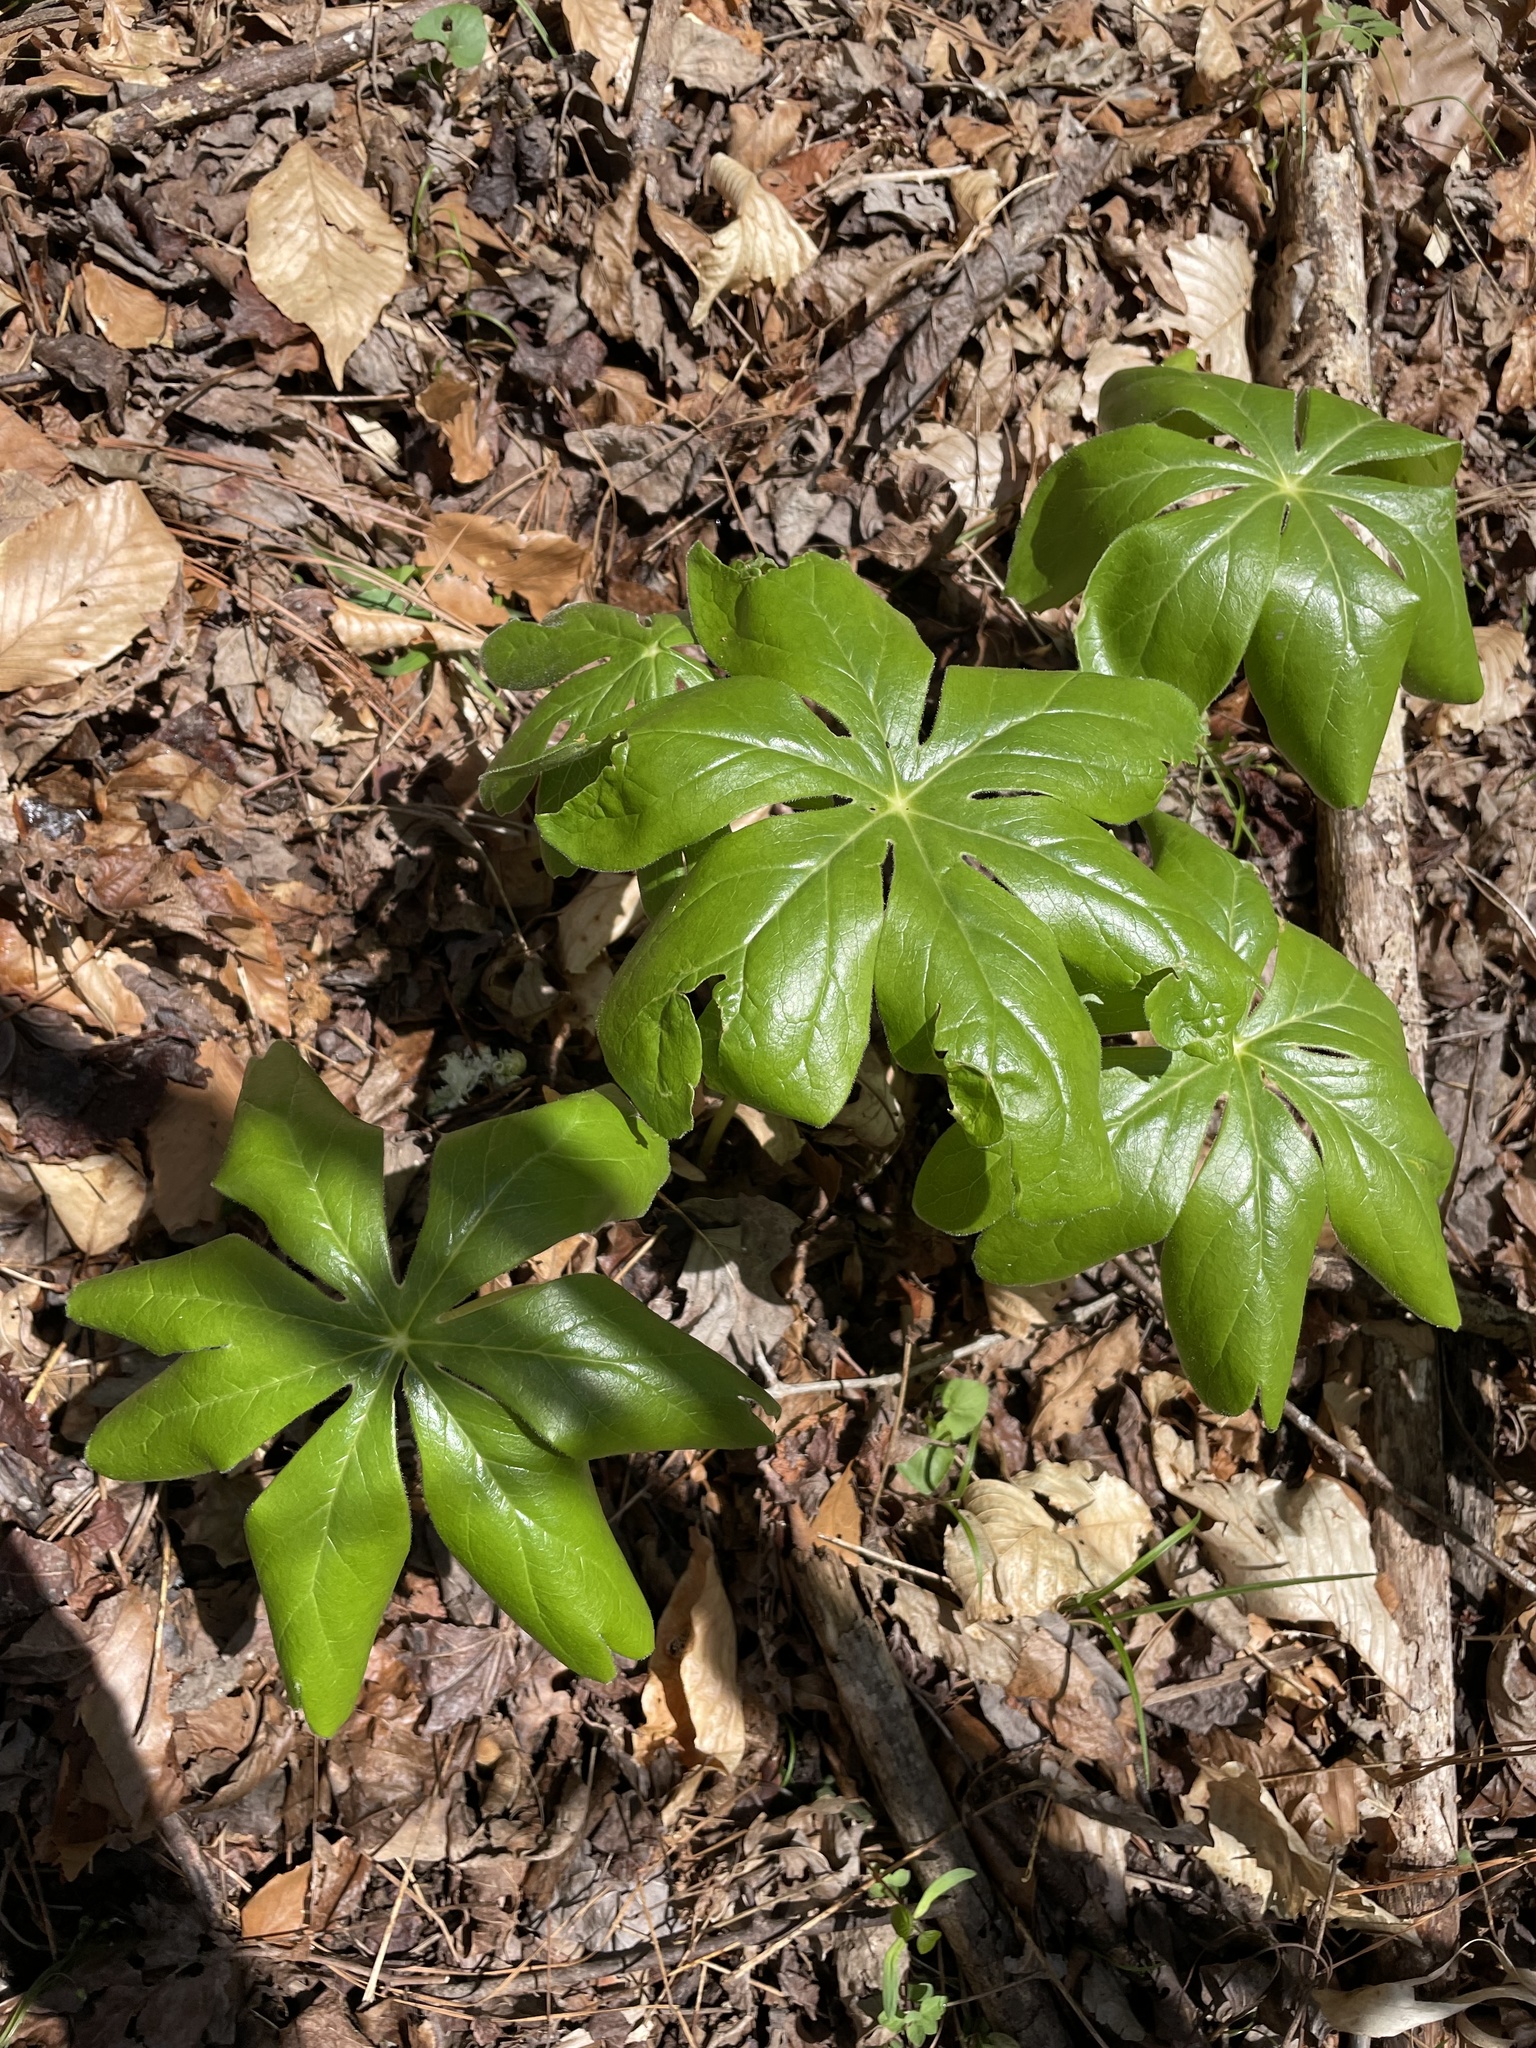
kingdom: Plantae
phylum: Tracheophyta
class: Magnoliopsida
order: Ranunculales
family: Berberidaceae
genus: Podophyllum
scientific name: Podophyllum peltatum
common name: Wild mandrake
